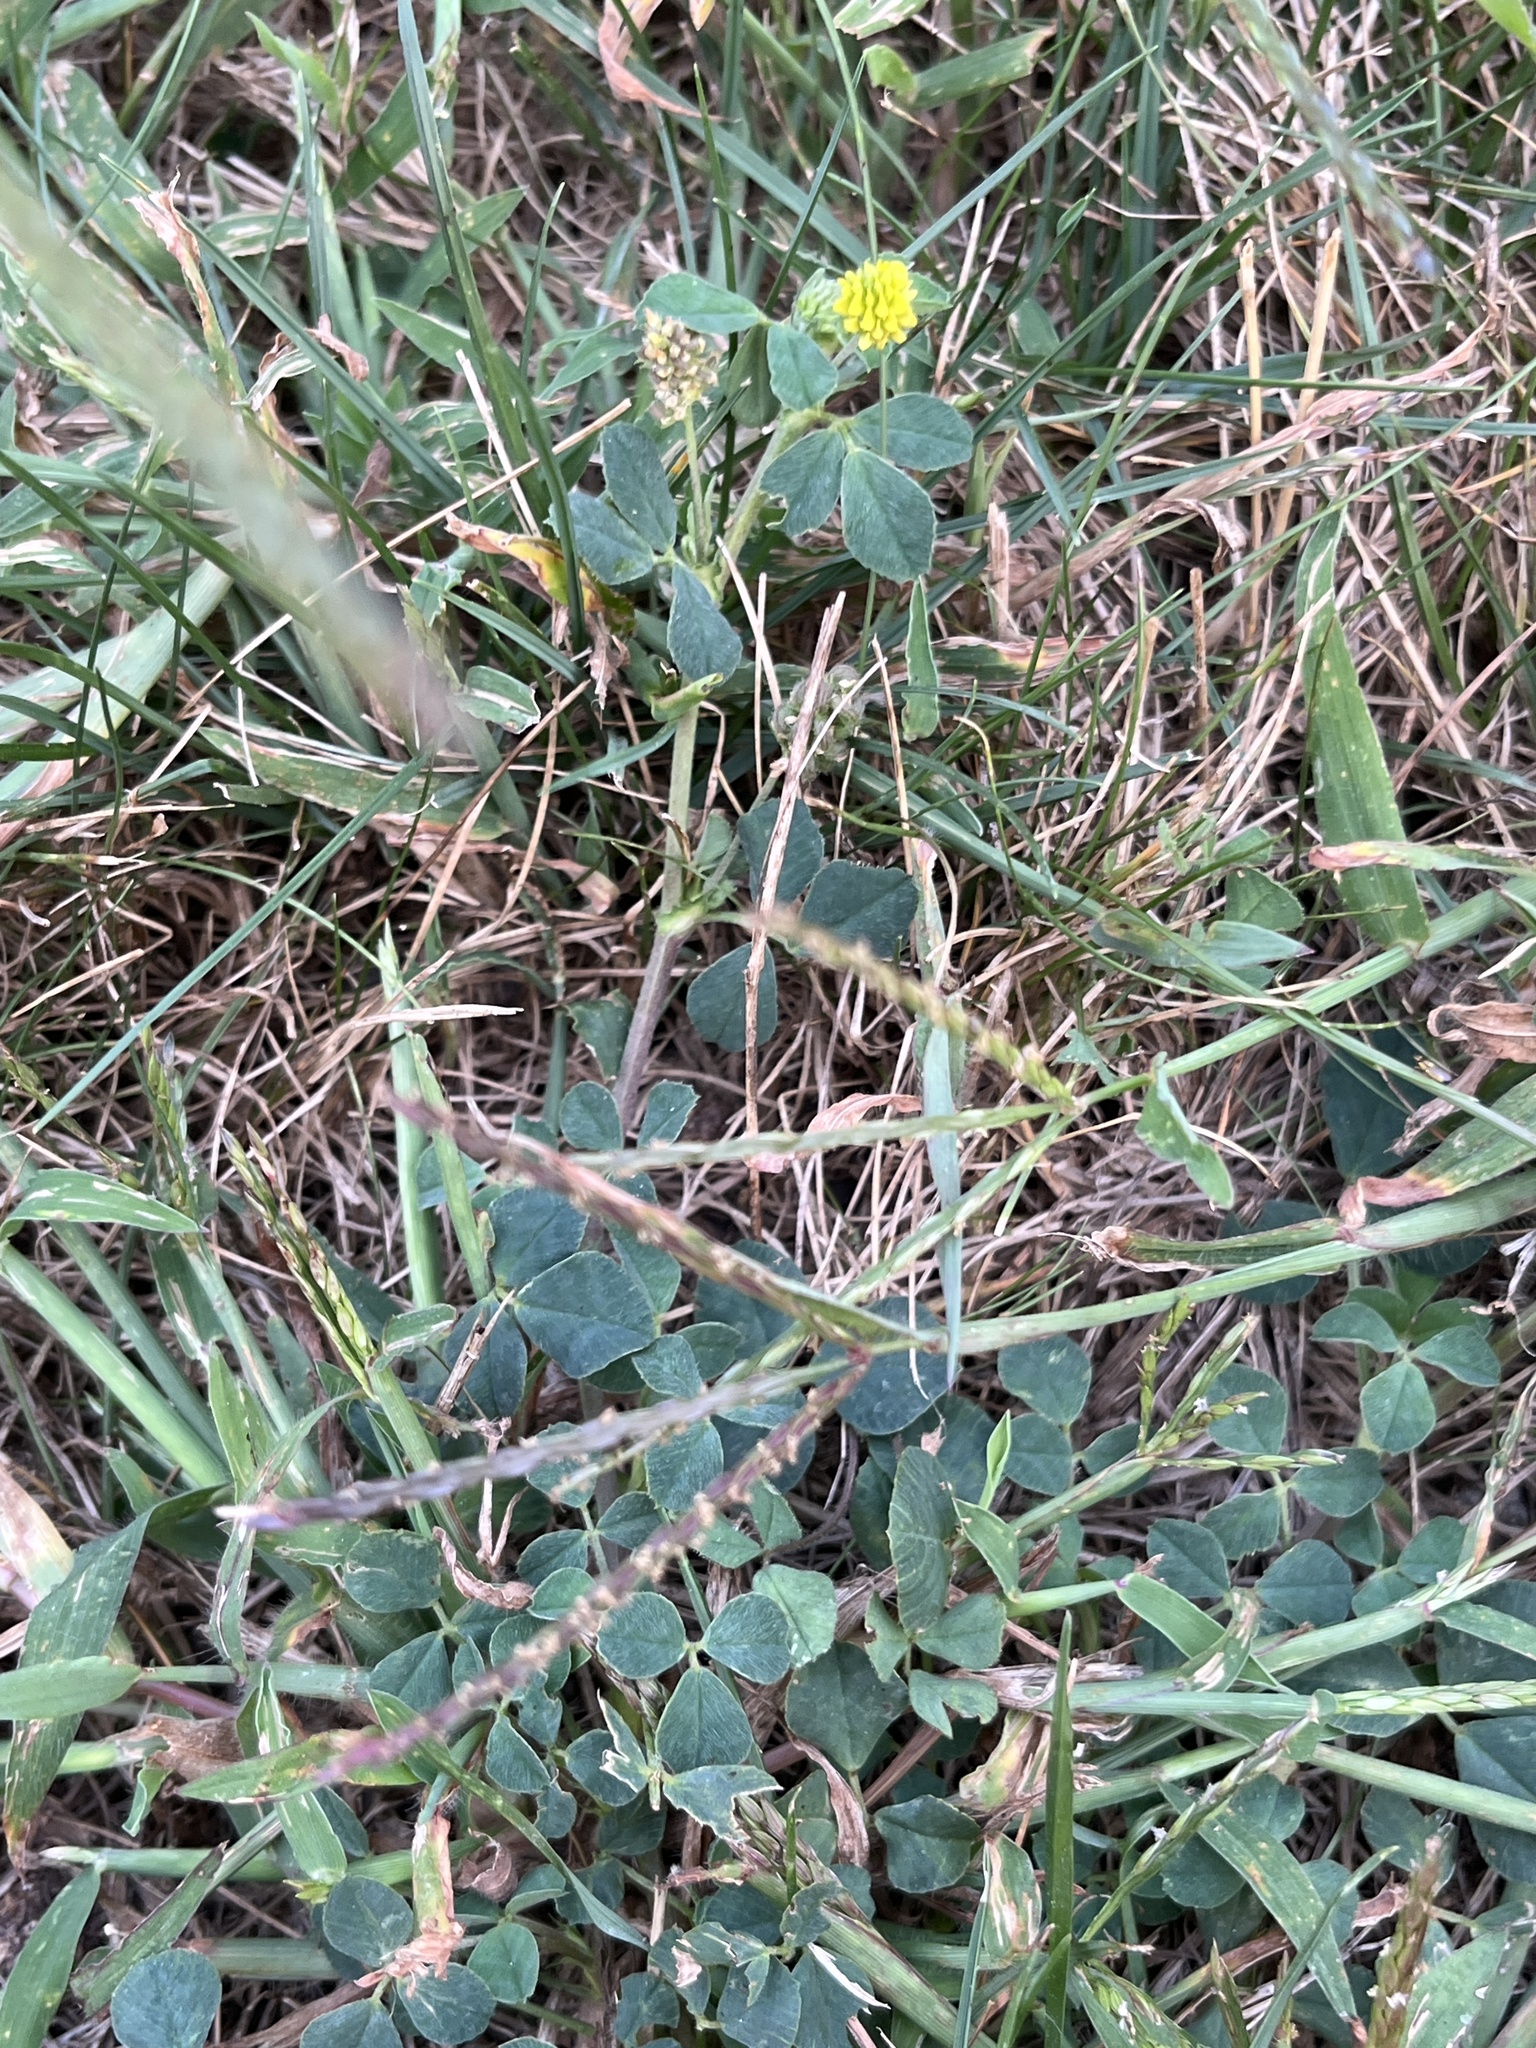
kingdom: Plantae
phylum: Tracheophyta
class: Magnoliopsida
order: Fabales
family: Fabaceae
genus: Medicago
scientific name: Medicago lupulina
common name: Black medick
